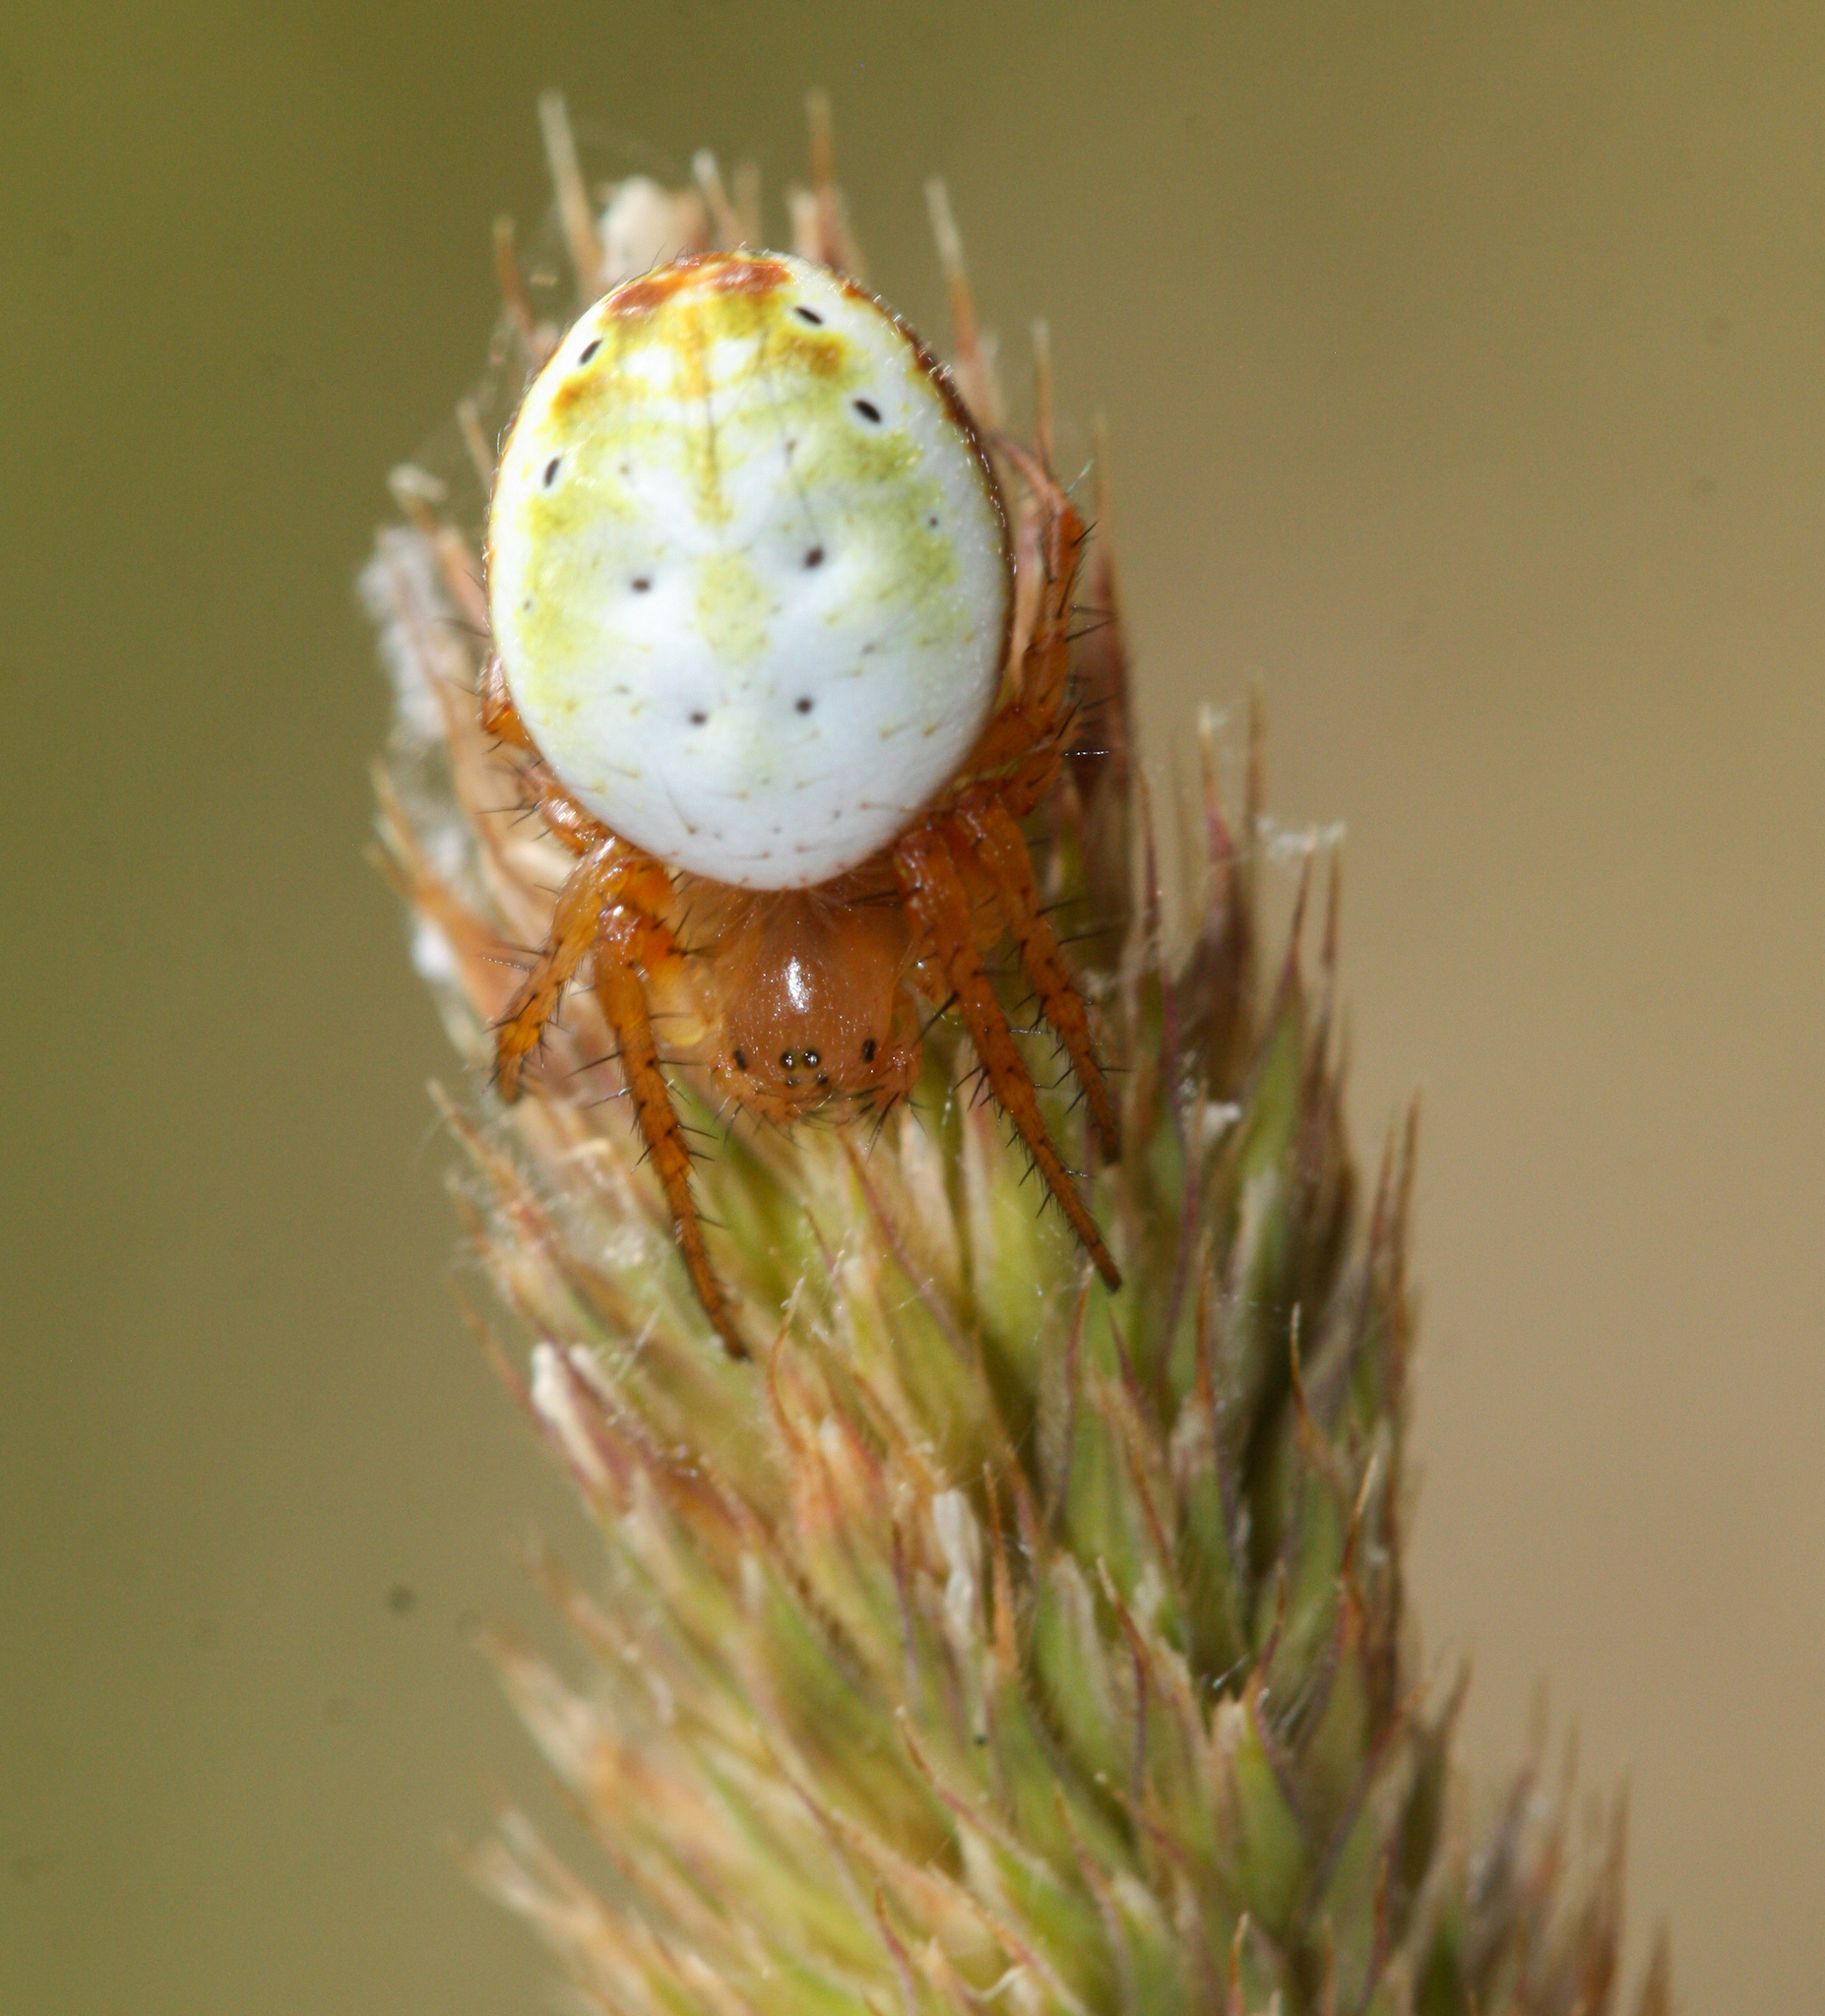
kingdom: Animalia
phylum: Arthropoda
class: Arachnida
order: Araneae
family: Araneidae
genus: Araniella
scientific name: Araniella displicata
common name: Sixspotted orb weaver
